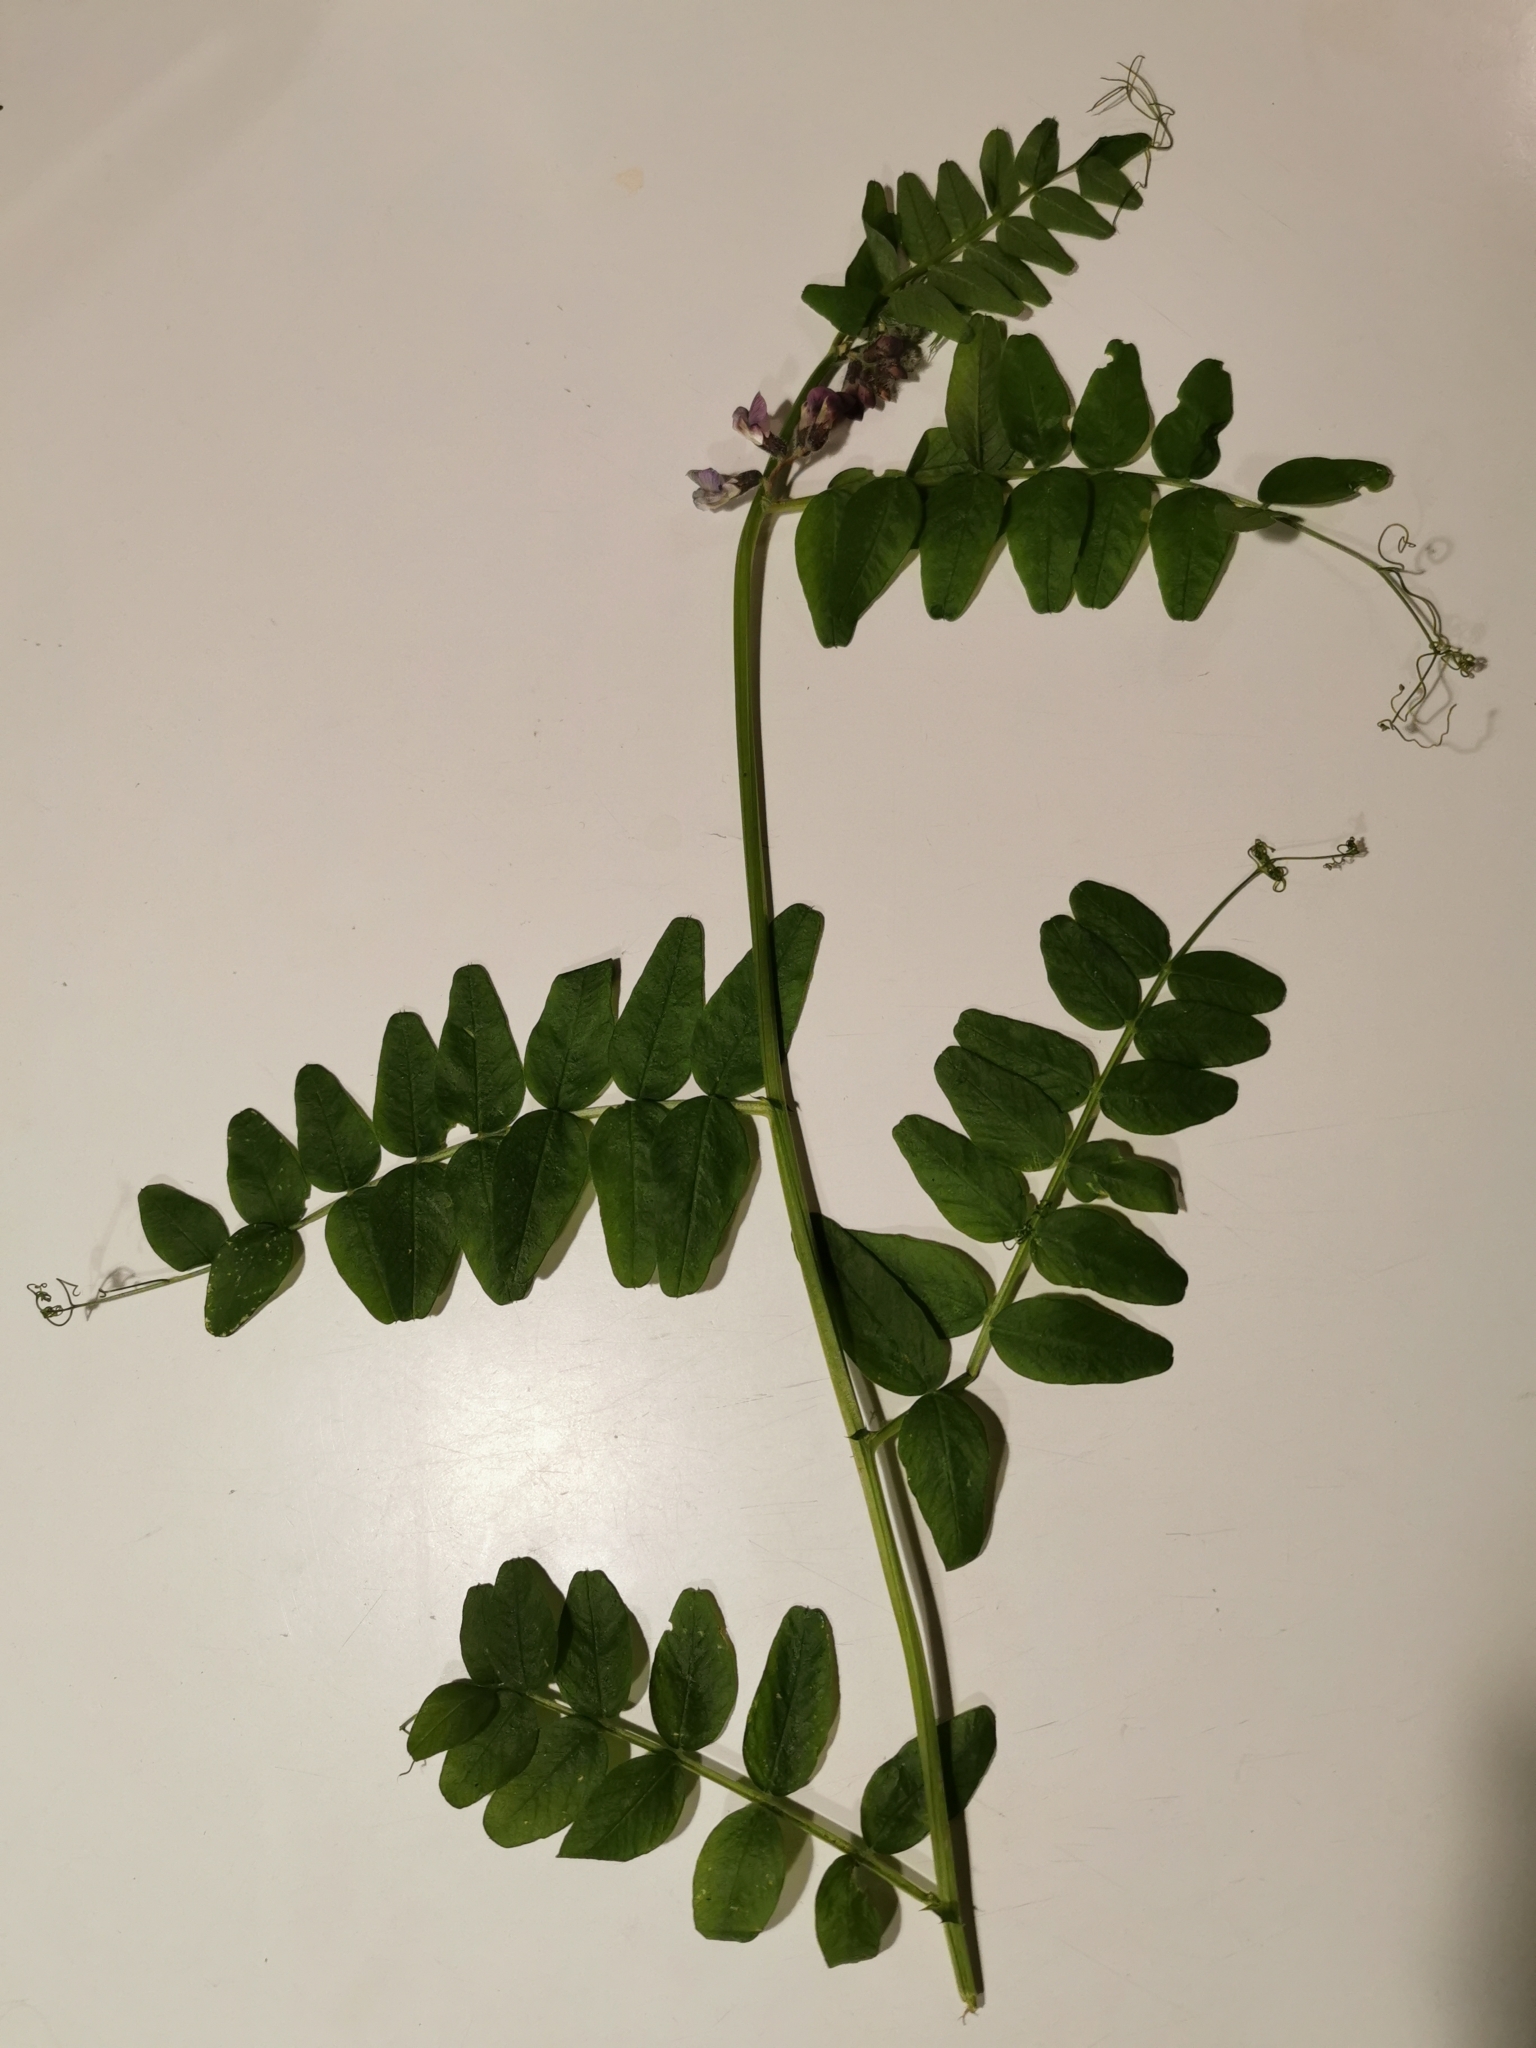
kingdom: Plantae
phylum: Tracheophyta
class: Magnoliopsida
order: Fabales
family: Fabaceae
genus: Vicia
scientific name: Vicia sepium
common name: Bush vetch
